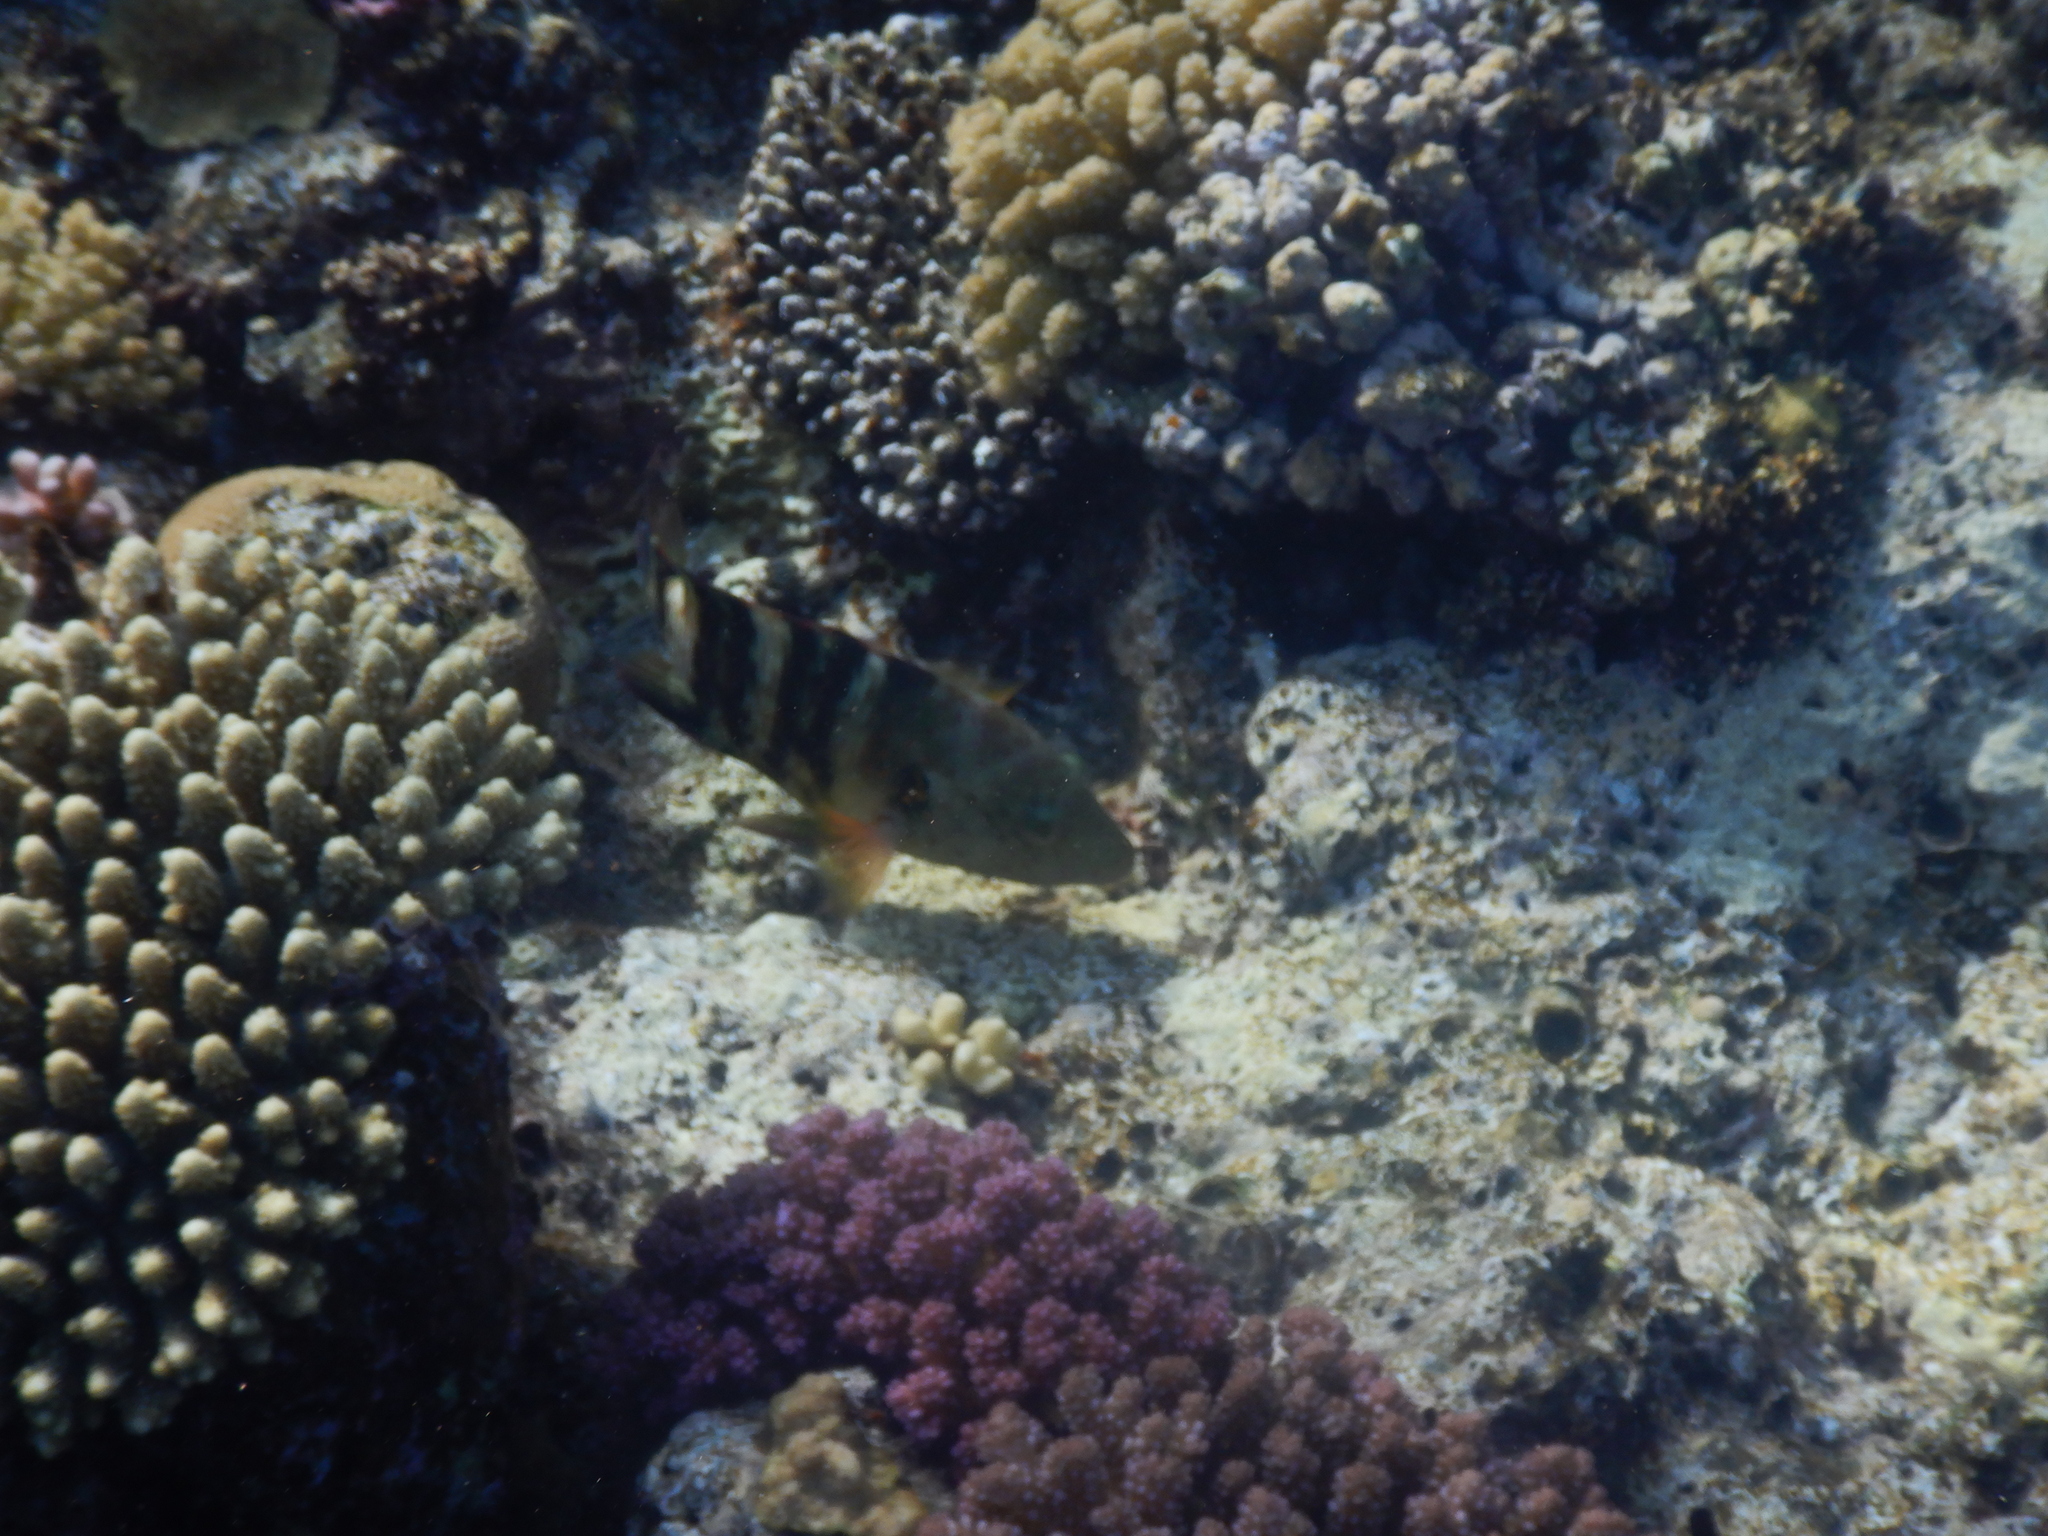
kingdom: Animalia
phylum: Chordata
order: Perciformes
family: Labridae
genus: Cheilinus
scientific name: Cheilinus lunulatus
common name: Broomtail wrasse
